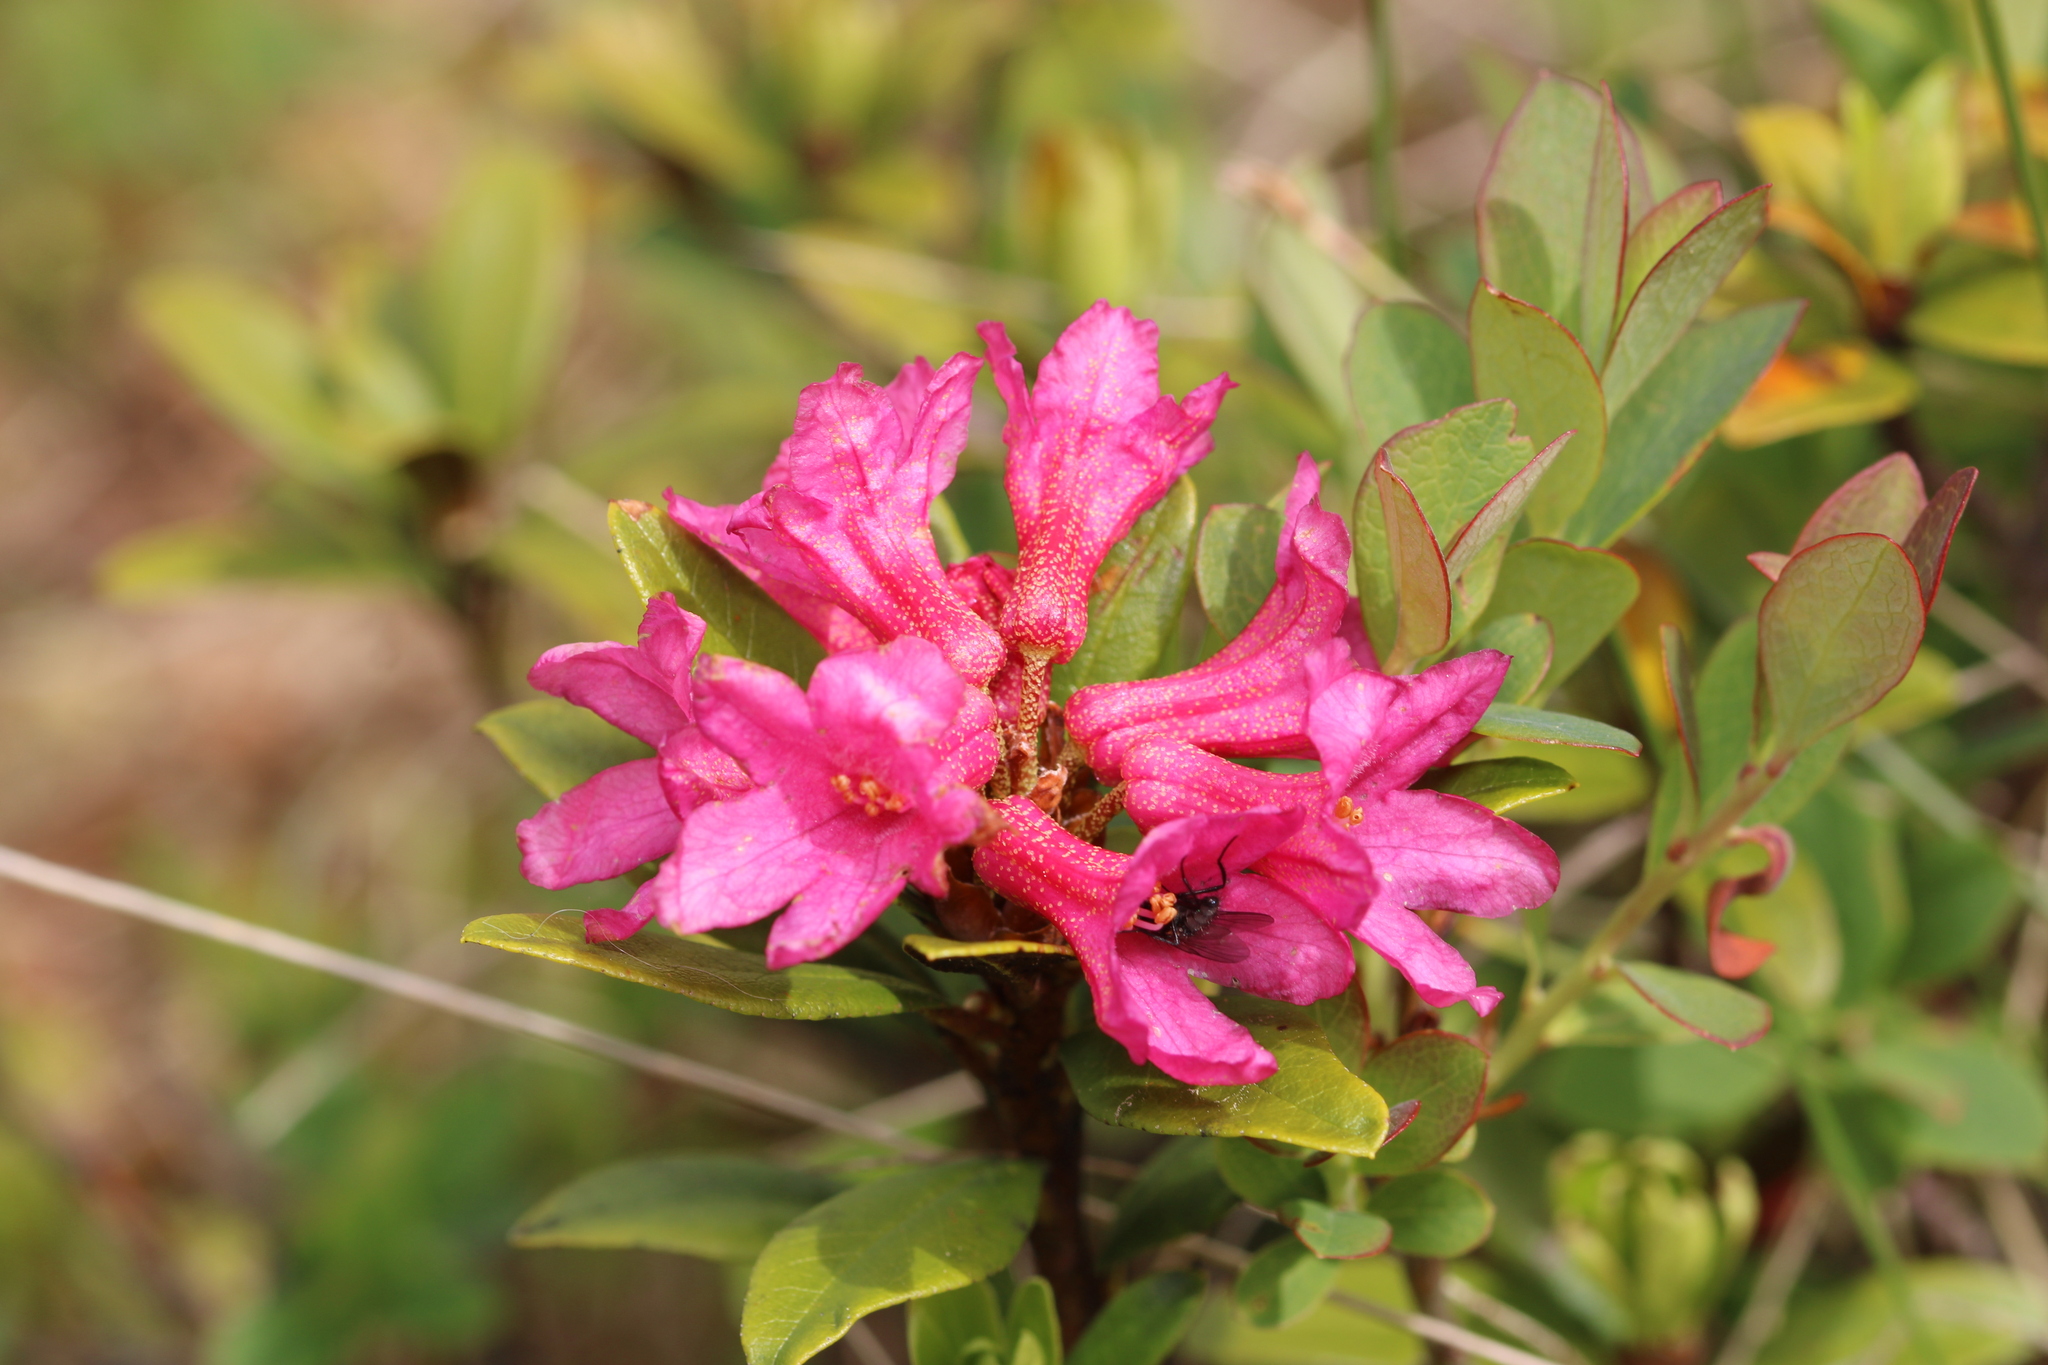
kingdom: Plantae
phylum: Tracheophyta
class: Magnoliopsida
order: Ericales
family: Ericaceae
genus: Rhododendron
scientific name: Rhododendron ferrugineum
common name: Alpenrose
